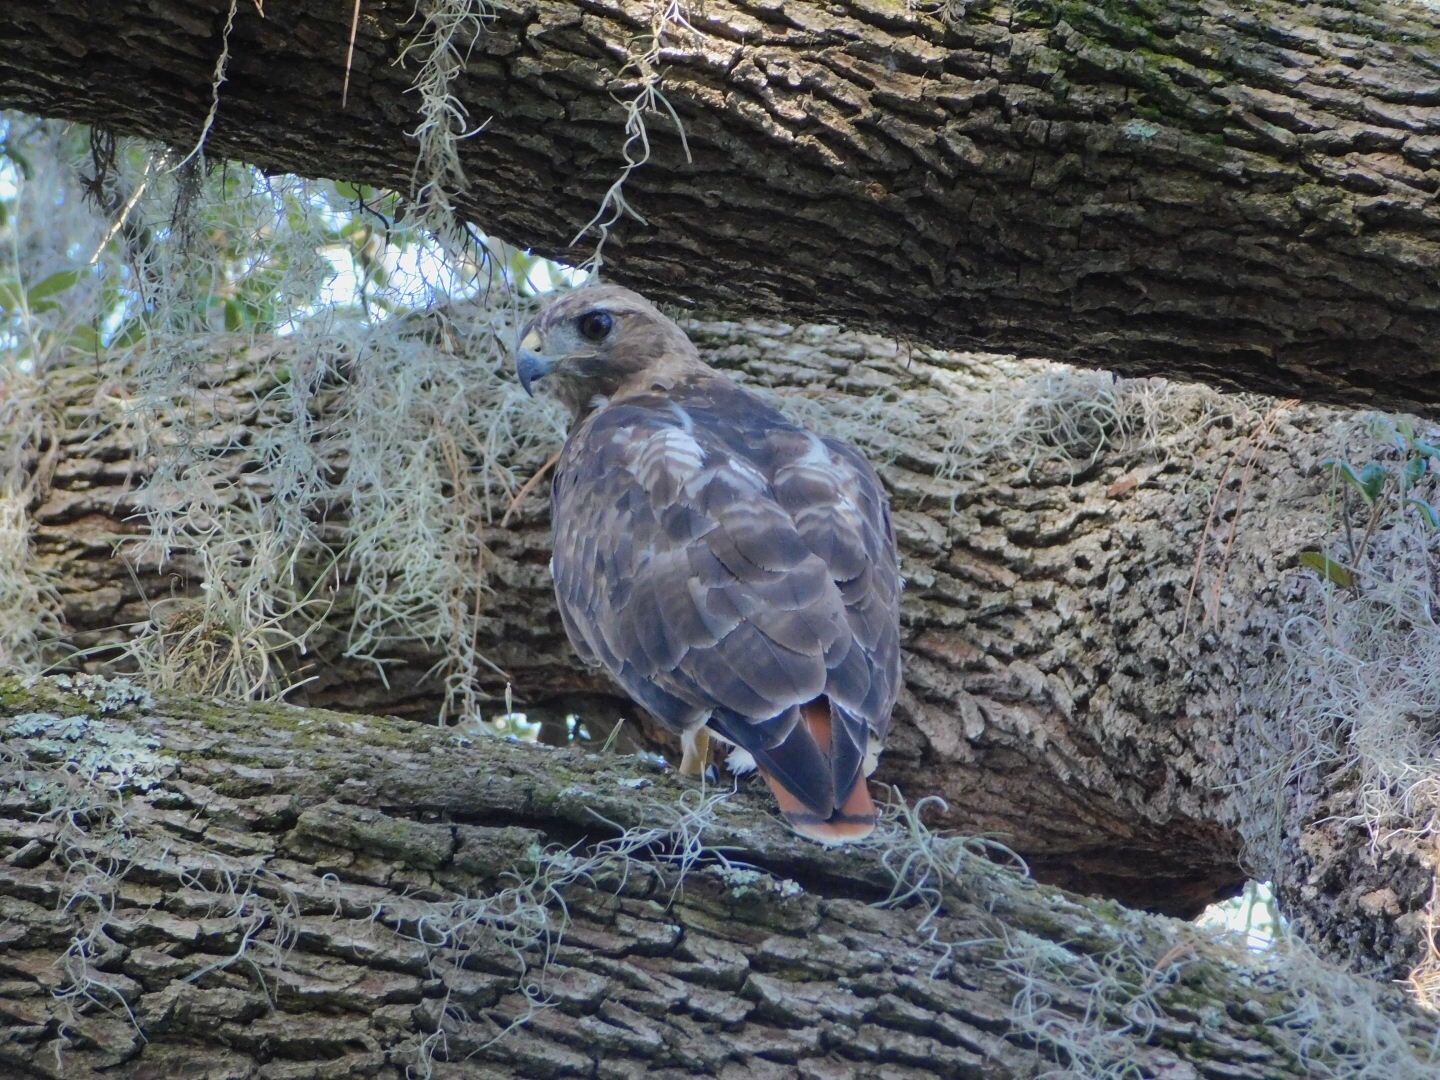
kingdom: Animalia
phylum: Chordata
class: Aves
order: Accipitriformes
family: Accipitridae
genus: Buteo
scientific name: Buteo jamaicensis
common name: Red-tailed hawk
